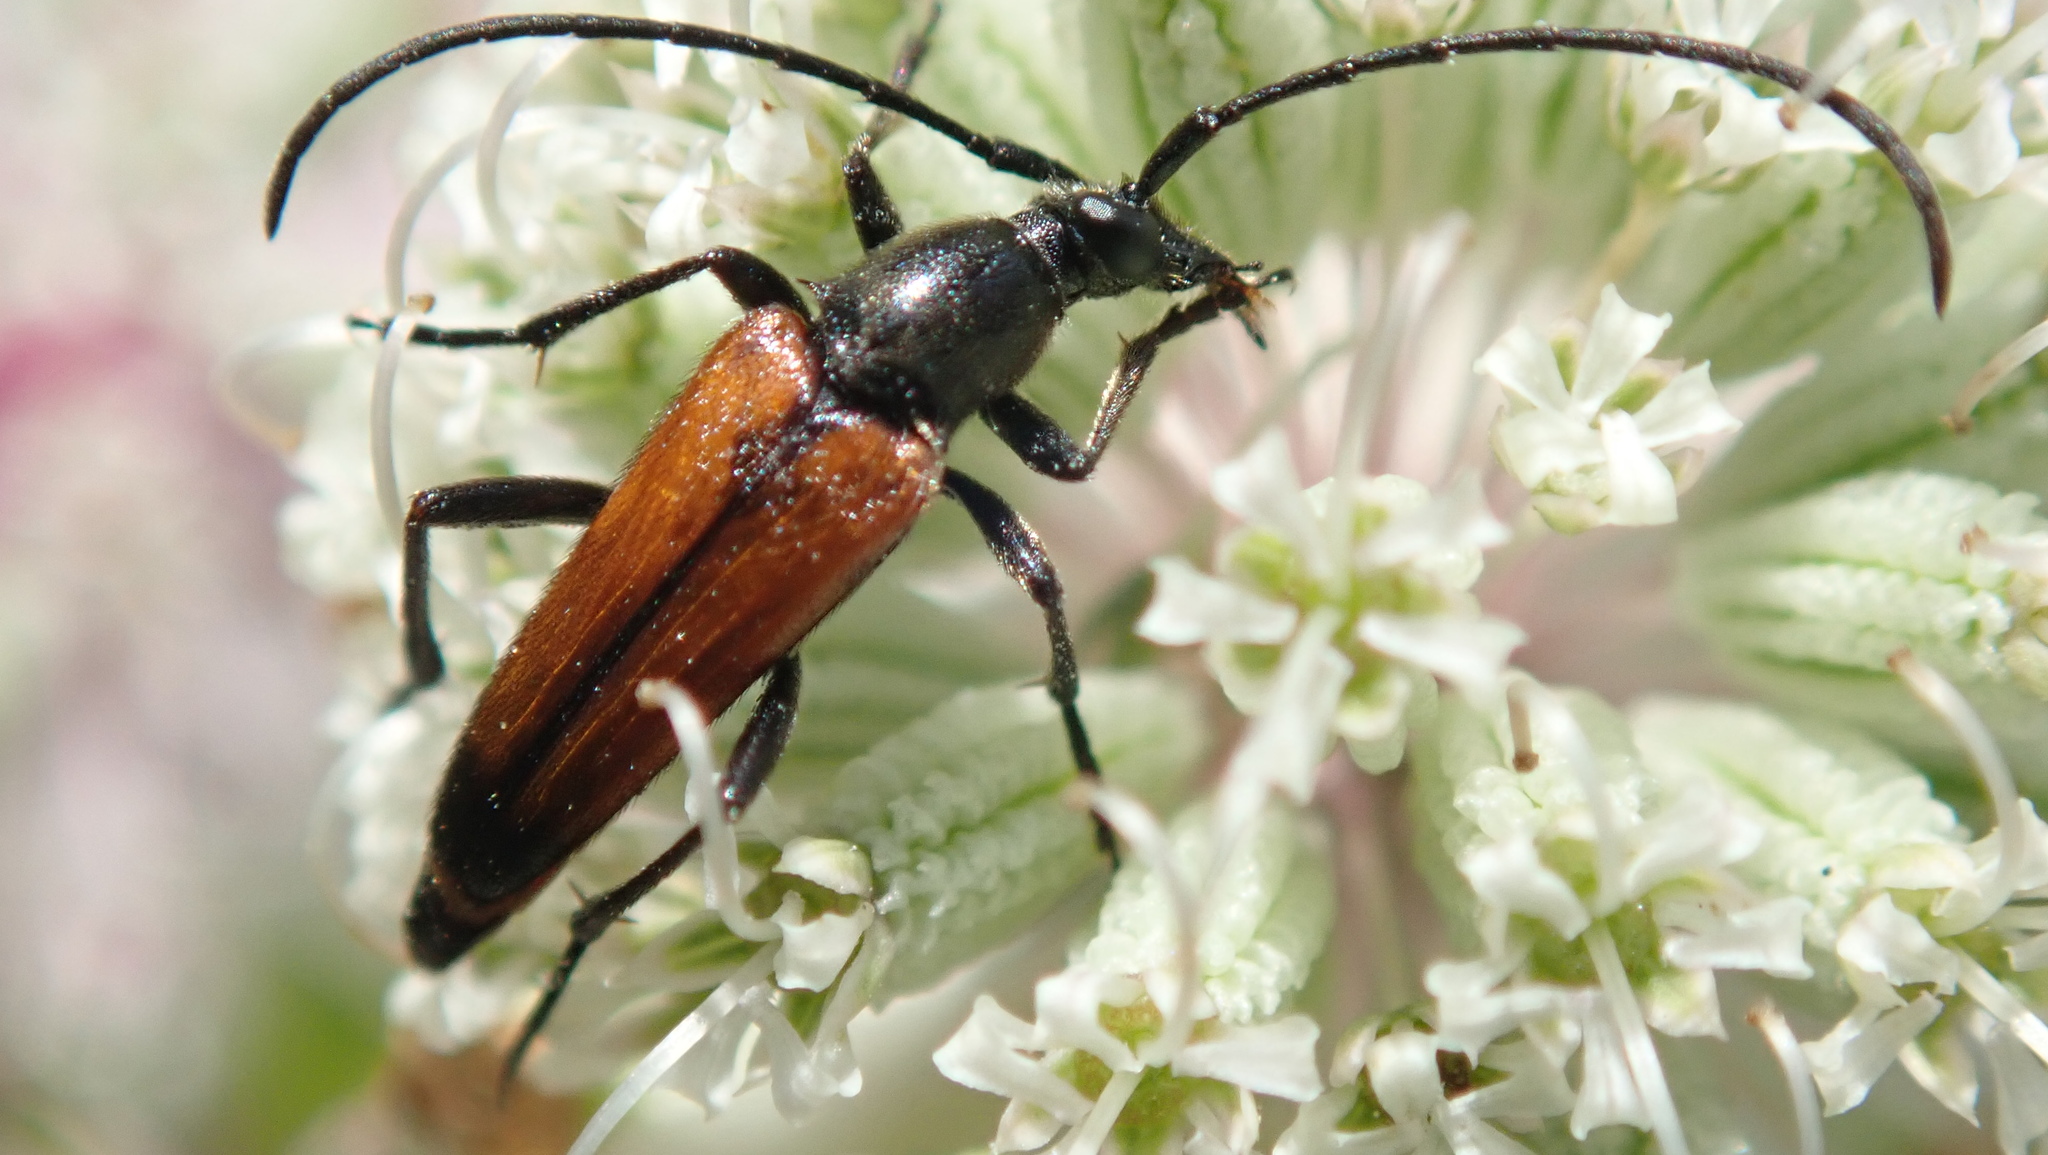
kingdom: Animalia
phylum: Arthropoda
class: Insecta
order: Coleoptera
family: Cerambycidae
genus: Stenurella
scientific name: Stenurella melanura
